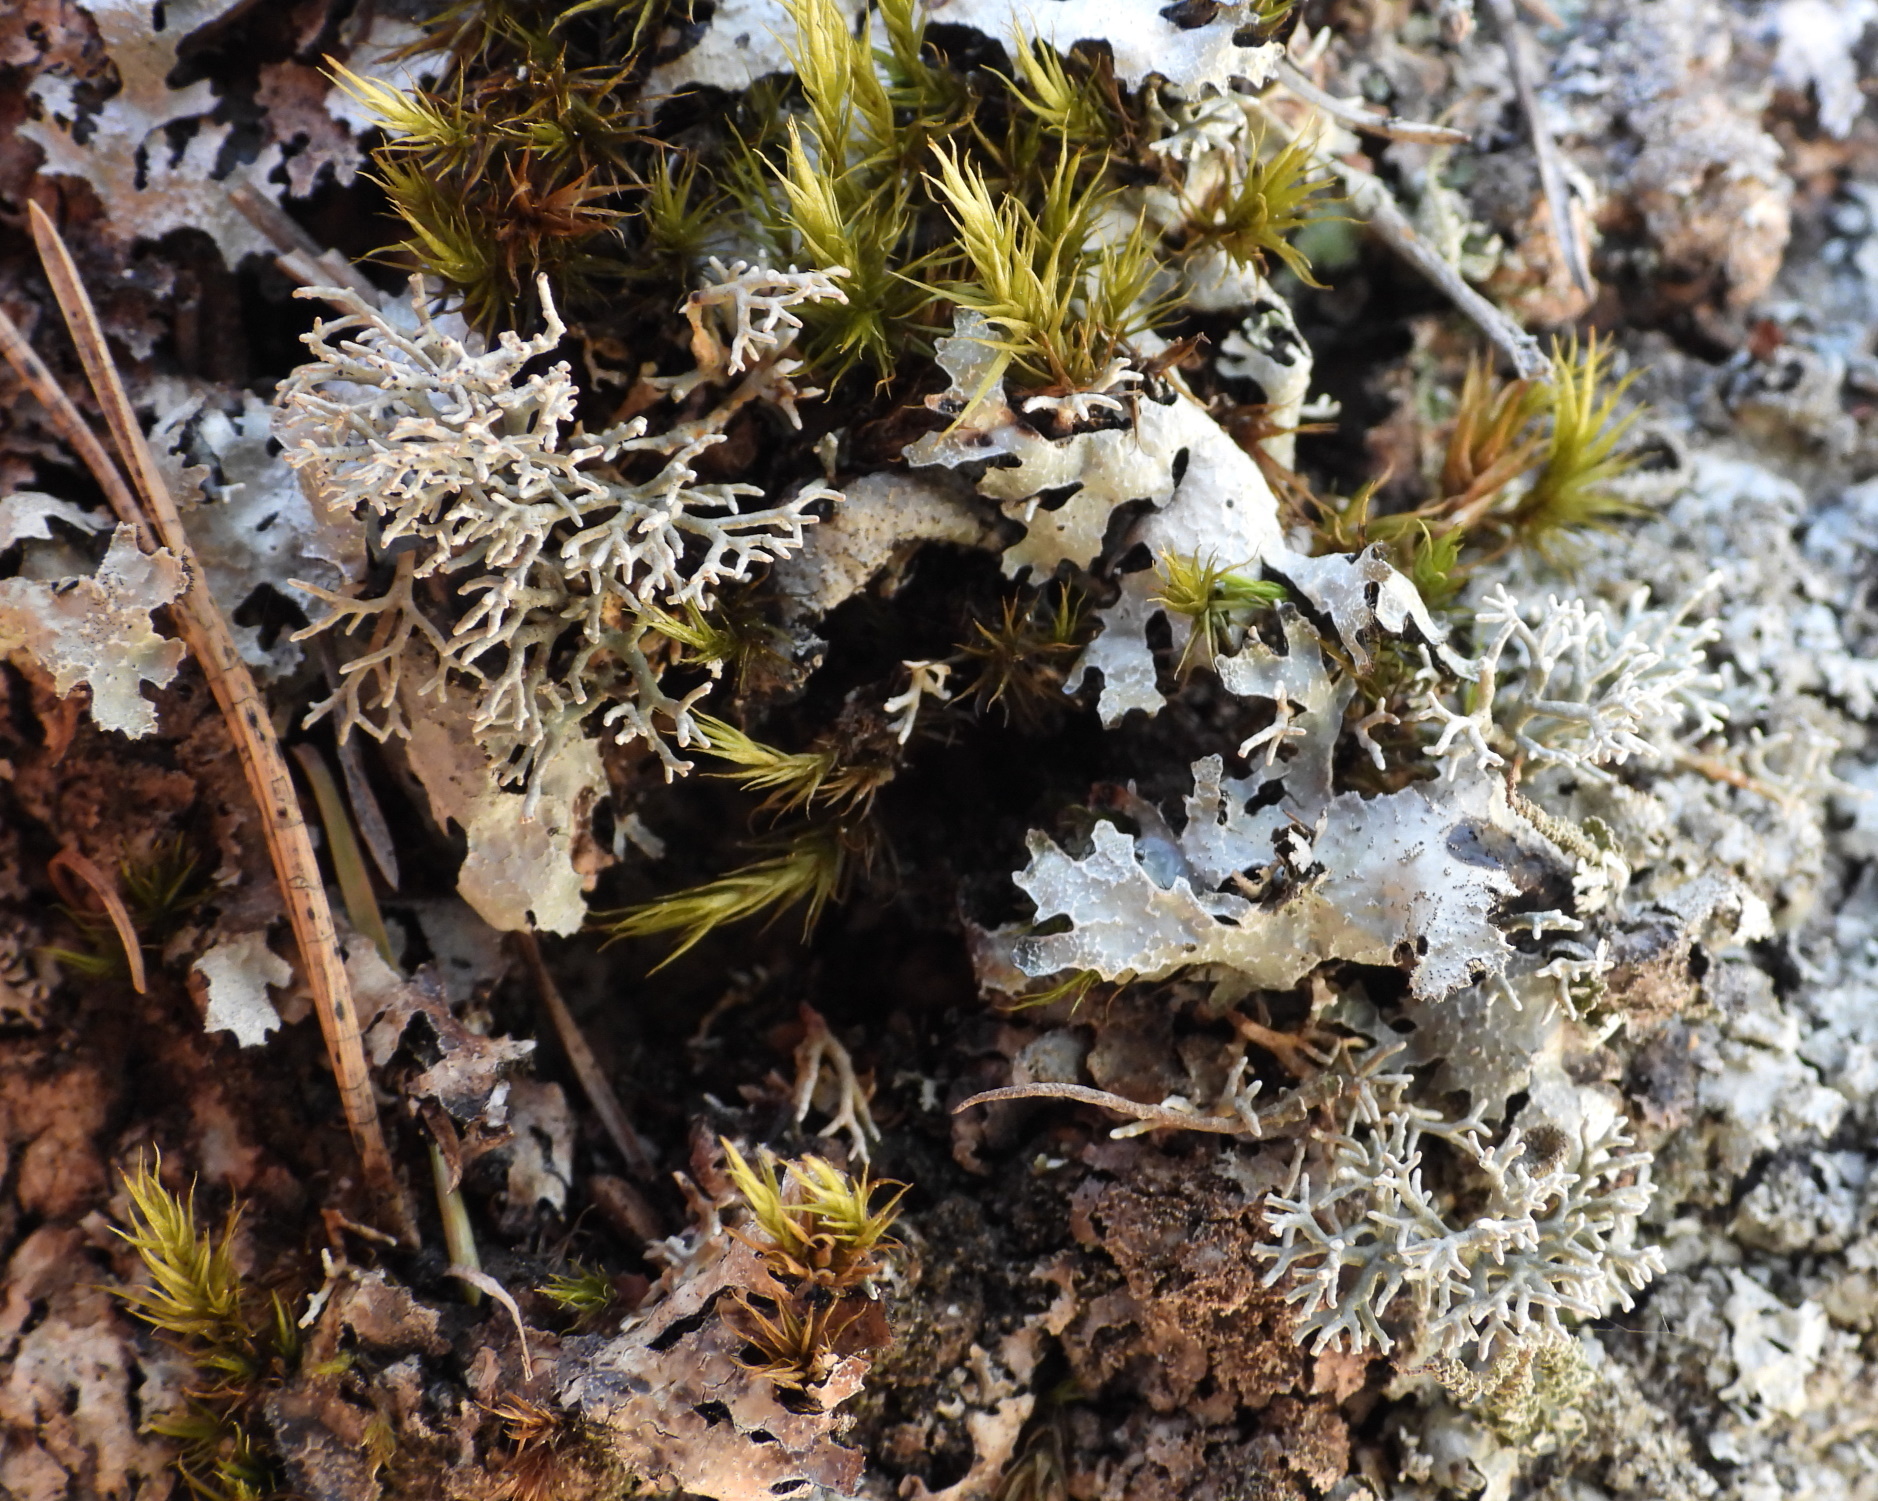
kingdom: Fungi
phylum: Ascomycota
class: Lecanoromycetes
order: Lecanorales
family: Sphaerophoraceae
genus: Sphaerophorus
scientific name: Sphaerophorus fragilis
